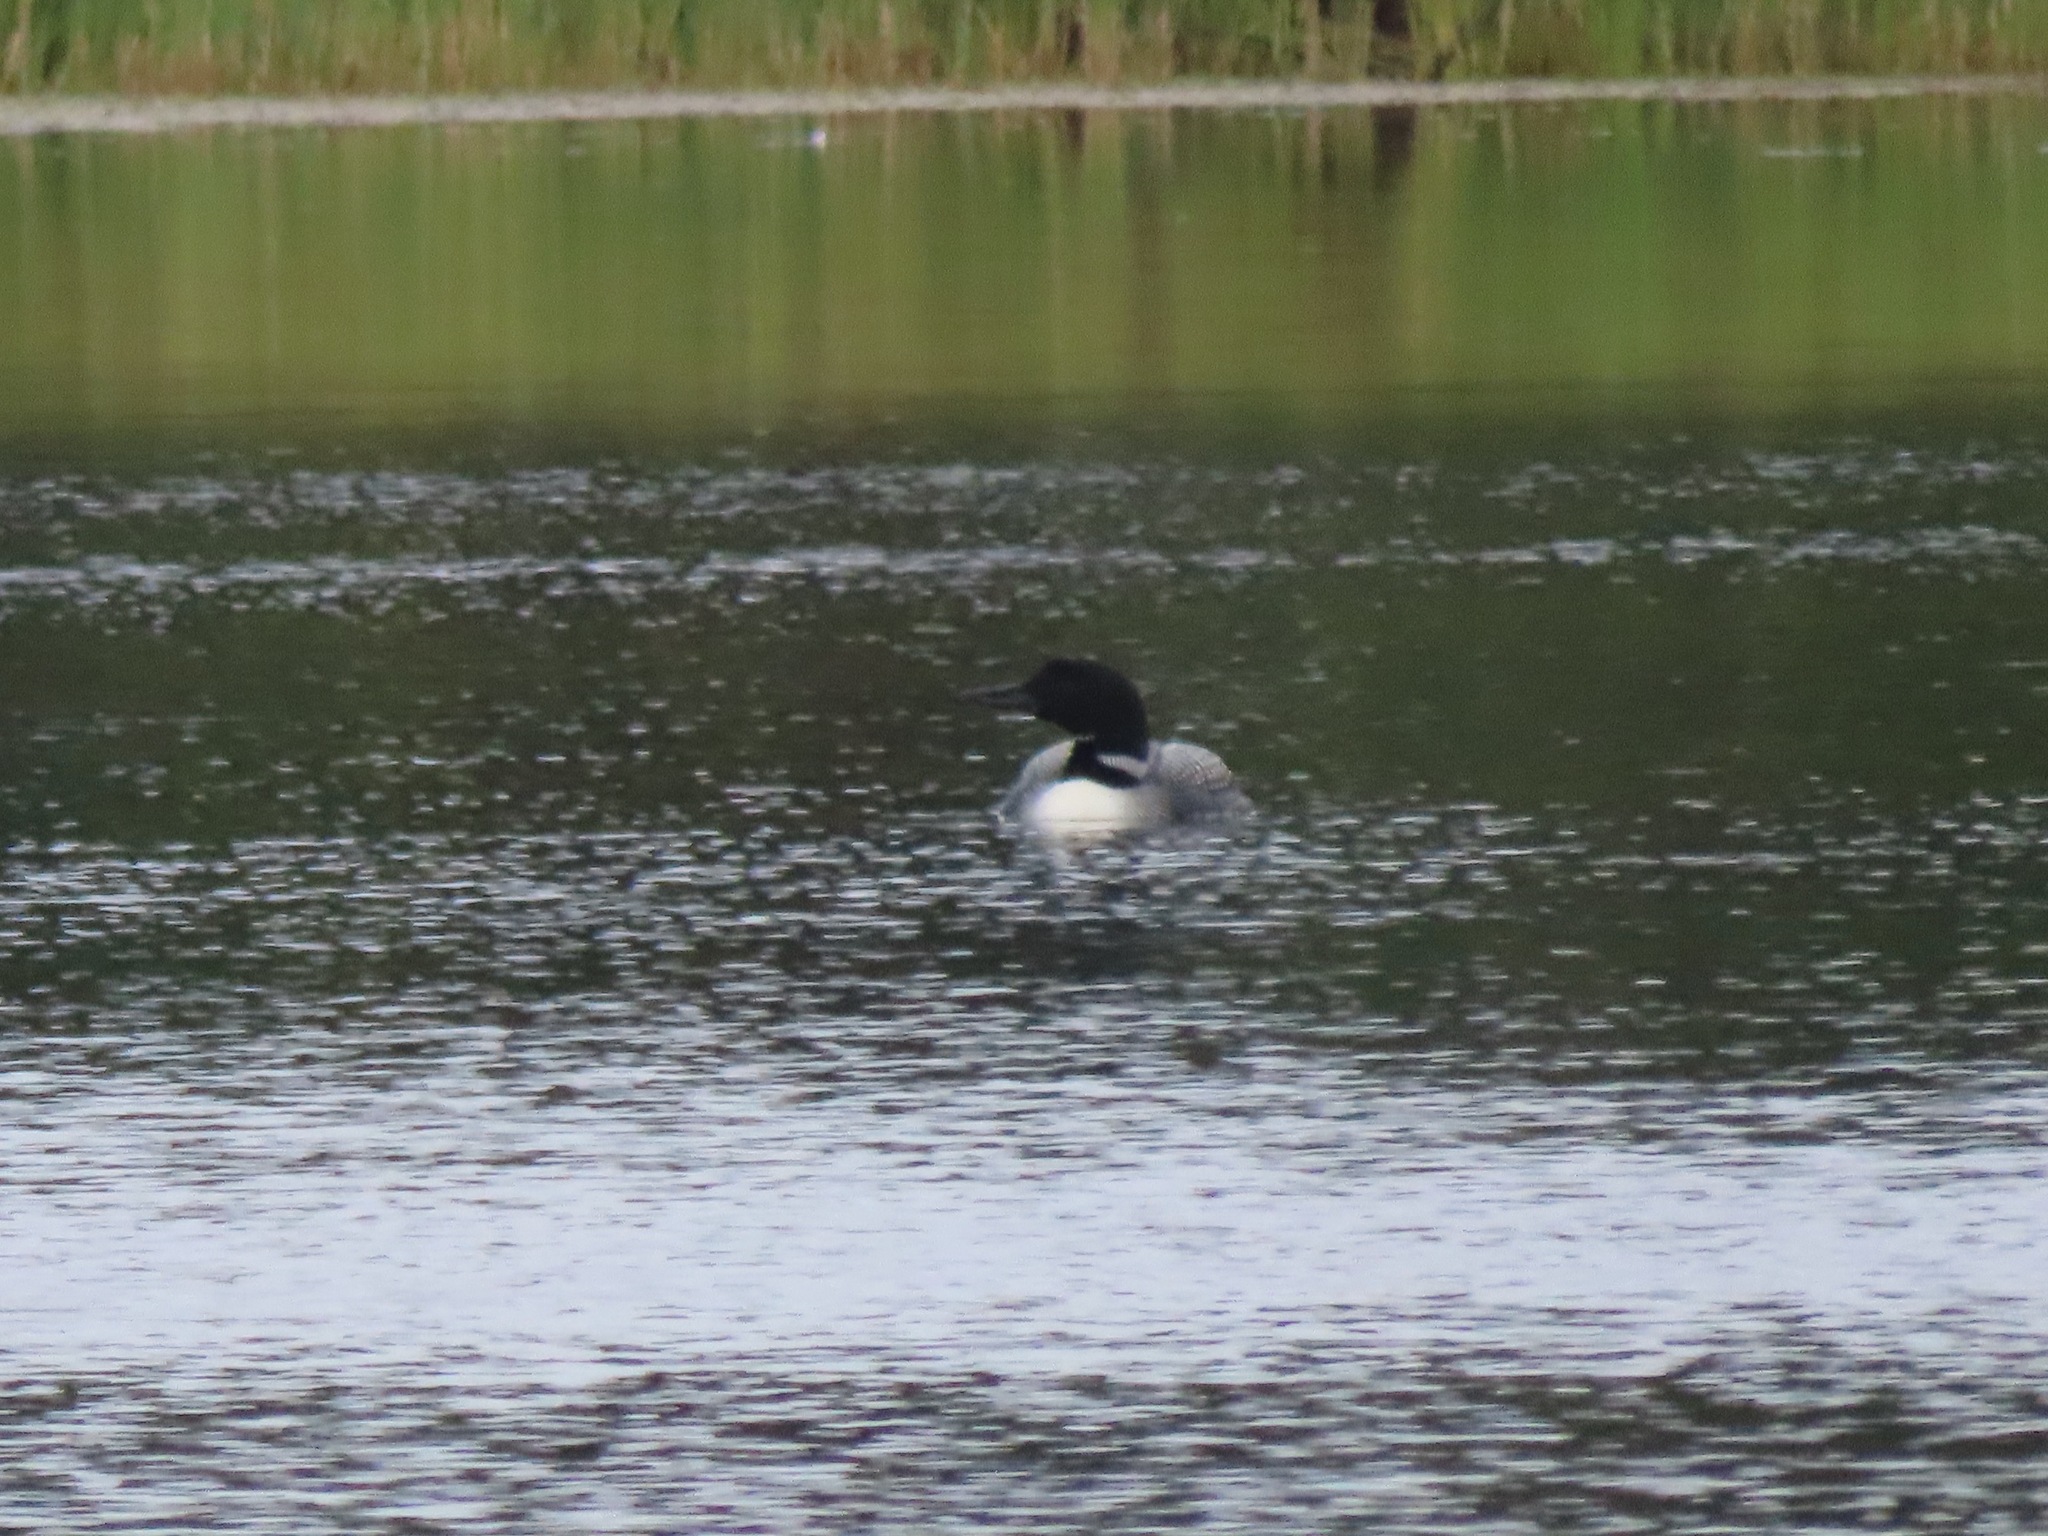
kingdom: Animalia
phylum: Chordata
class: Aves
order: Gaviiformes
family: Gaviidae
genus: Gavia
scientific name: Gavia immer
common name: Common loon
